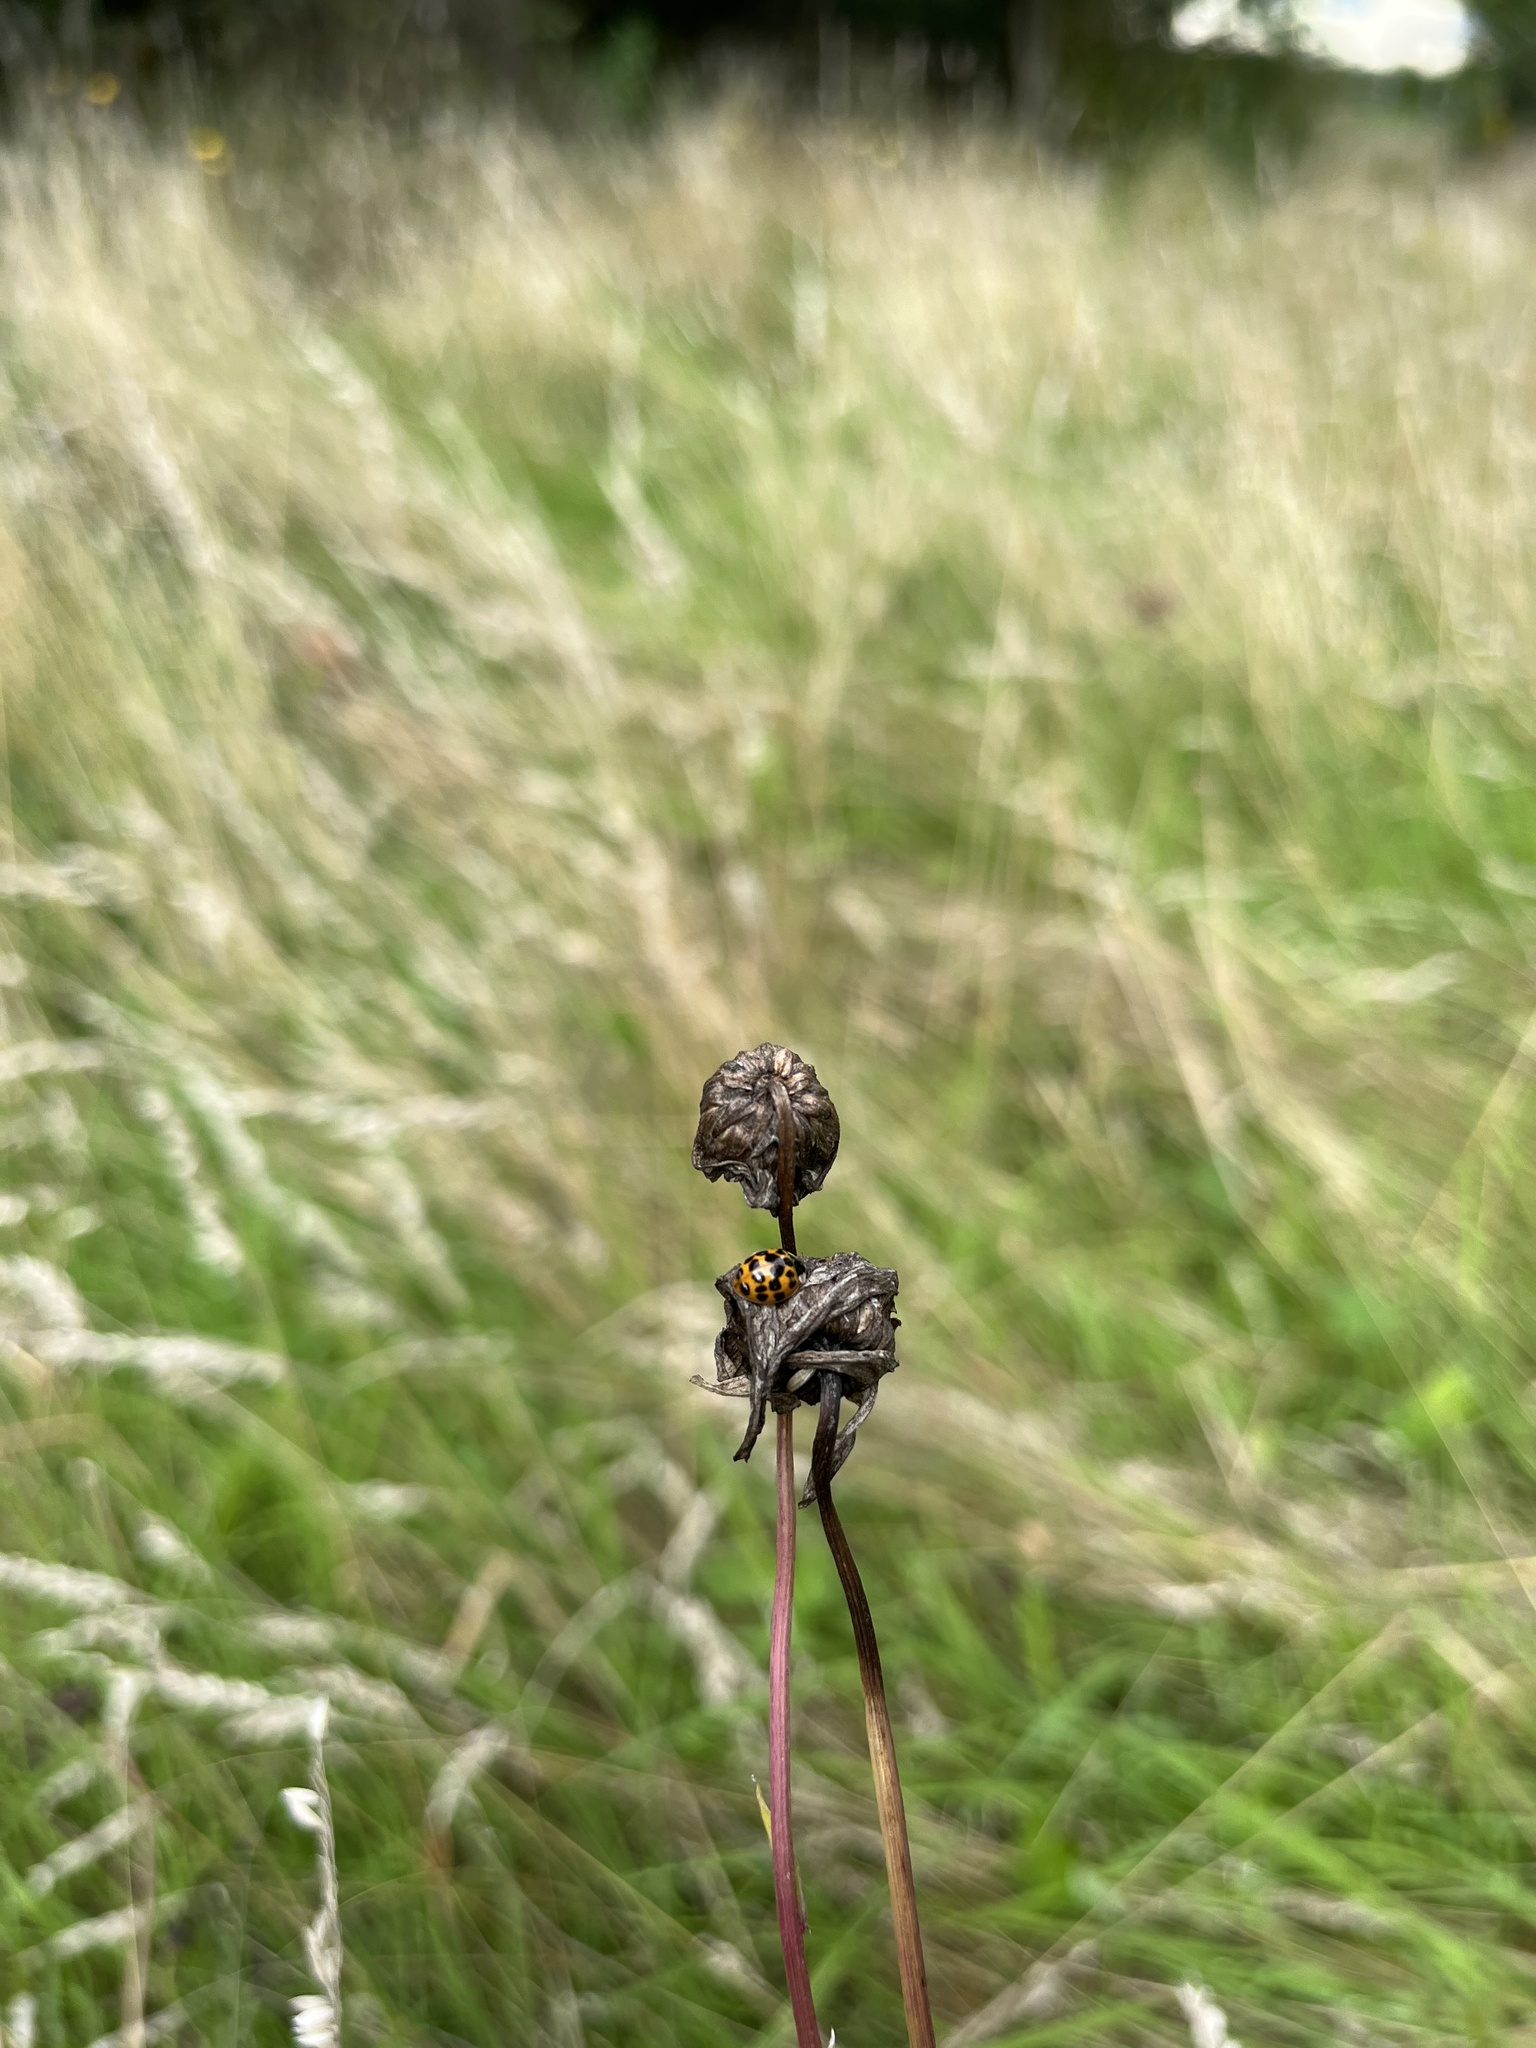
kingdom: Animalia
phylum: Arthropoda
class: Insecta
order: Coleoptera
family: Coccinellidae
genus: Harmonia
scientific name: Harmonia axyridis
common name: Harlequin ladybird
